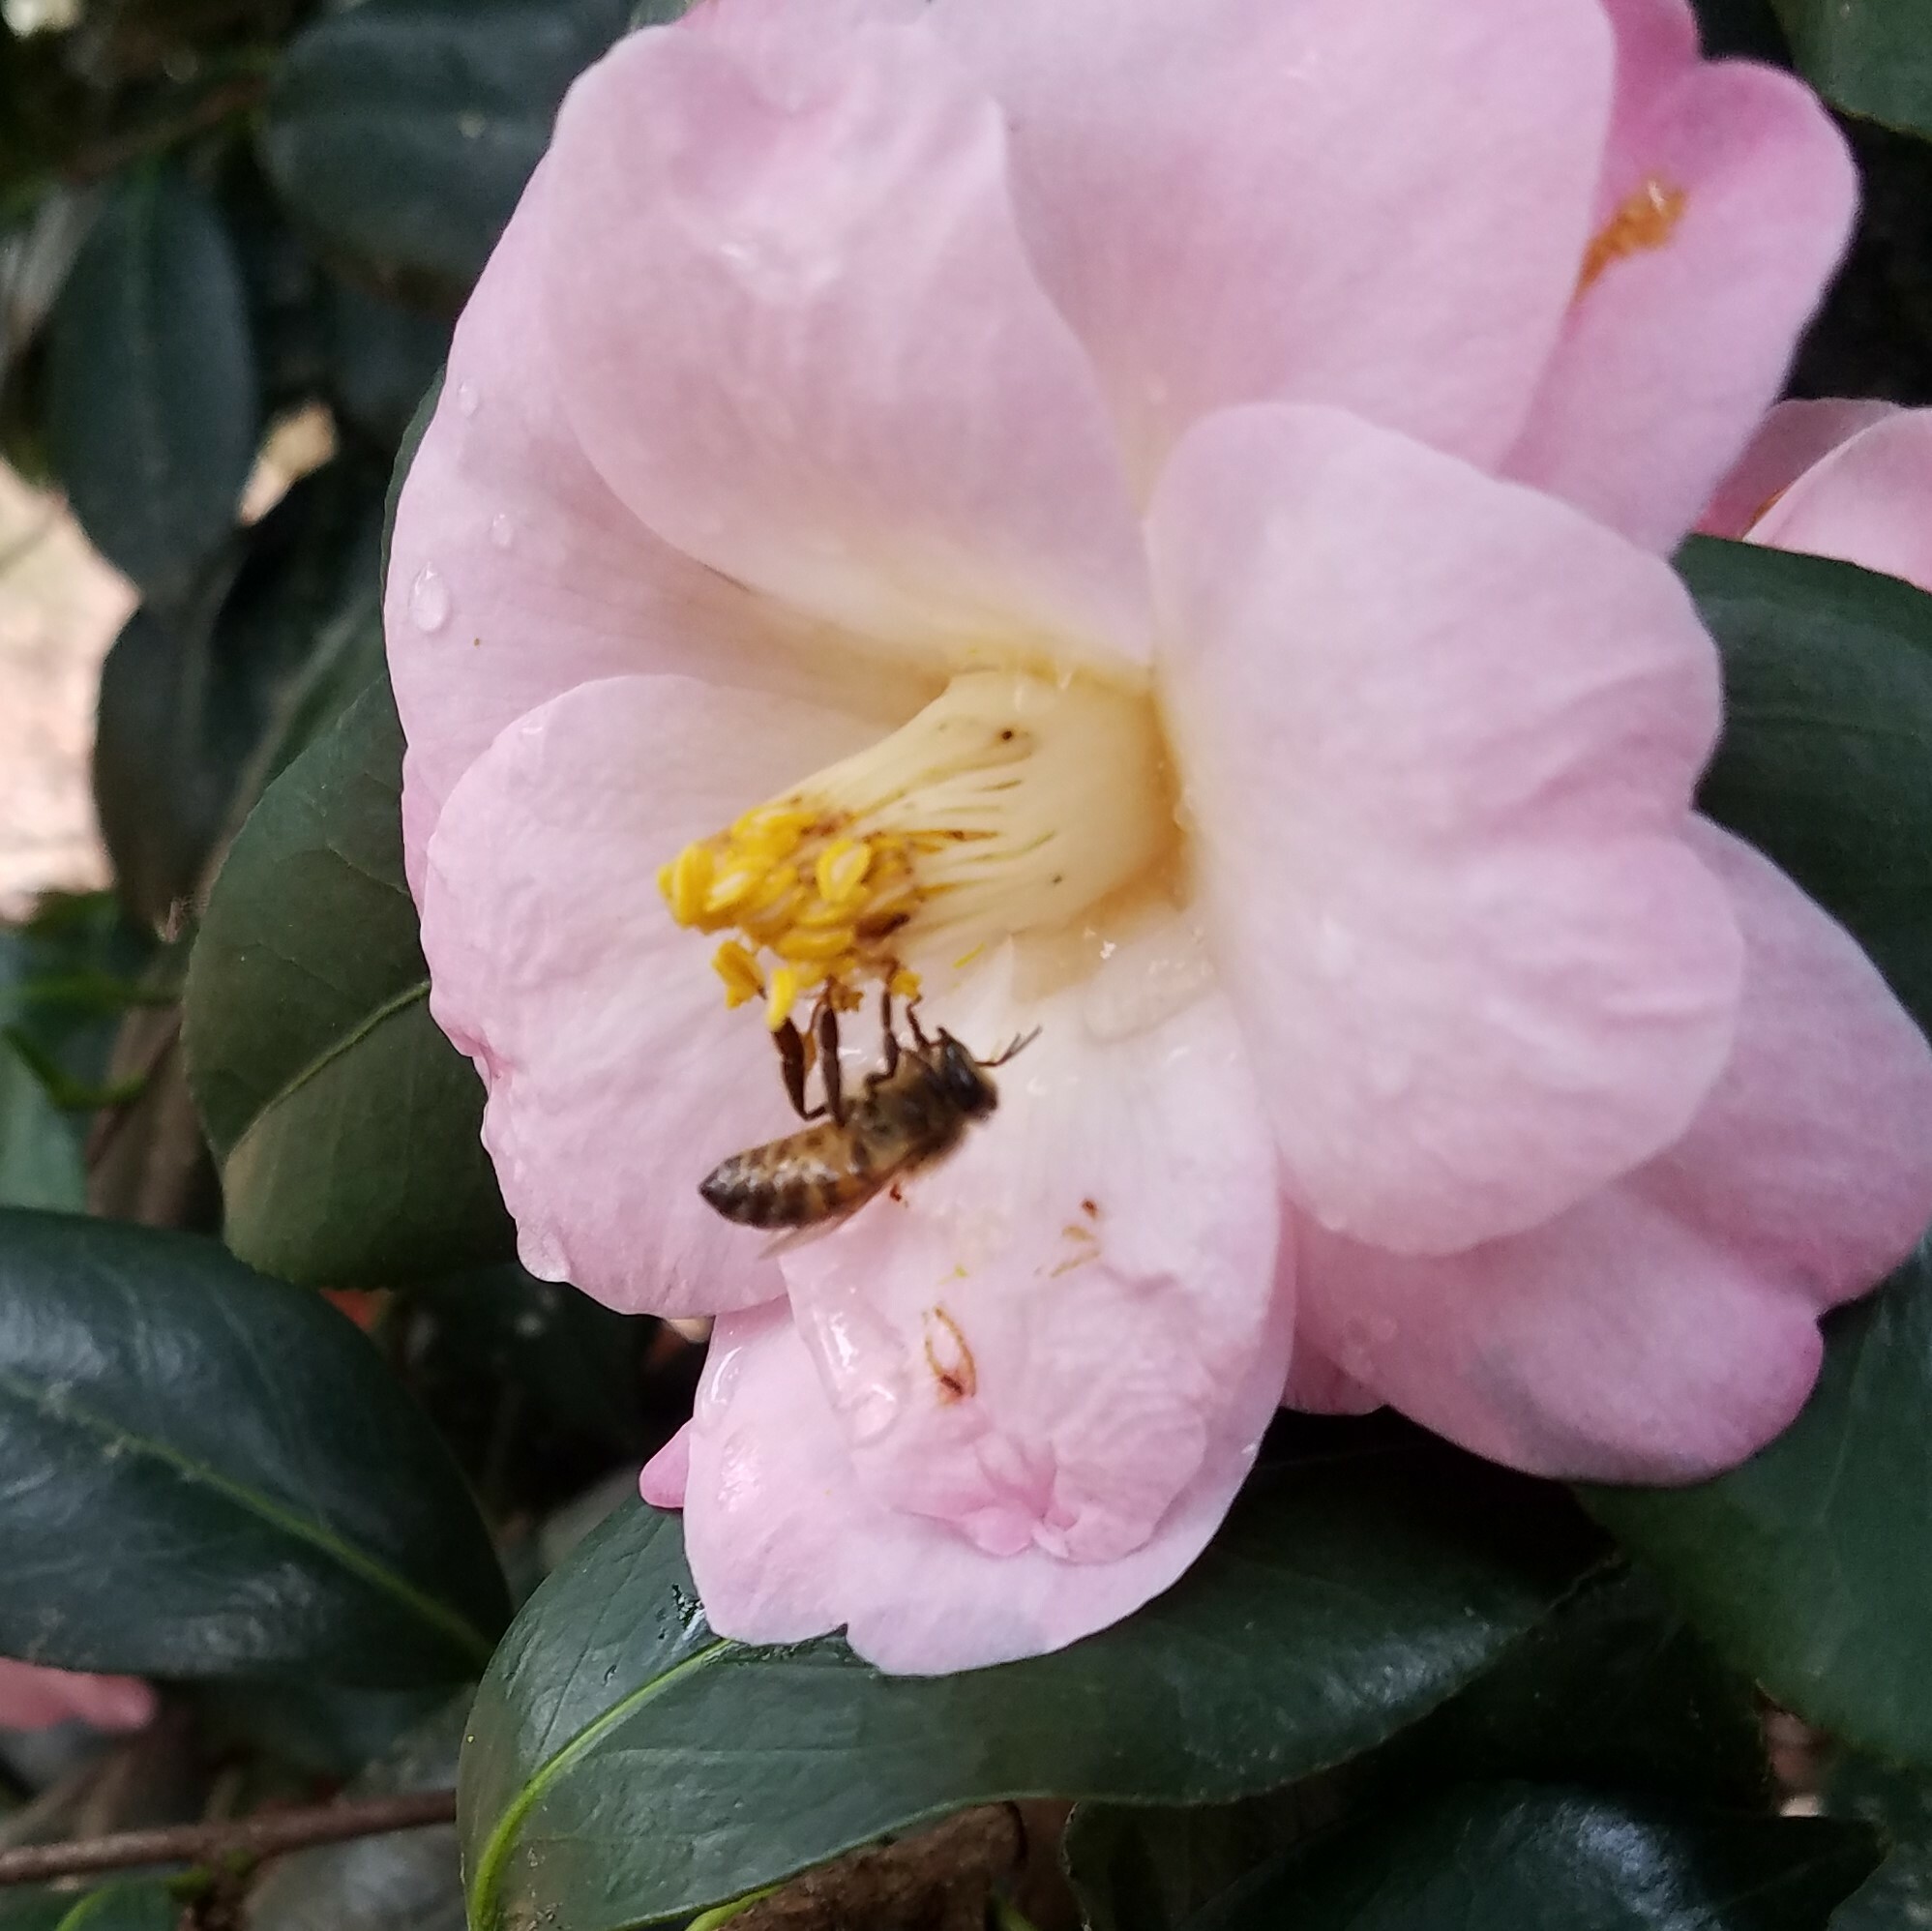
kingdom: Animalia
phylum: Arthropoda
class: Insecta
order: Hymenoptera
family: Apidae
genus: Apis
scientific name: Apis mellifera
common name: Honey bee
